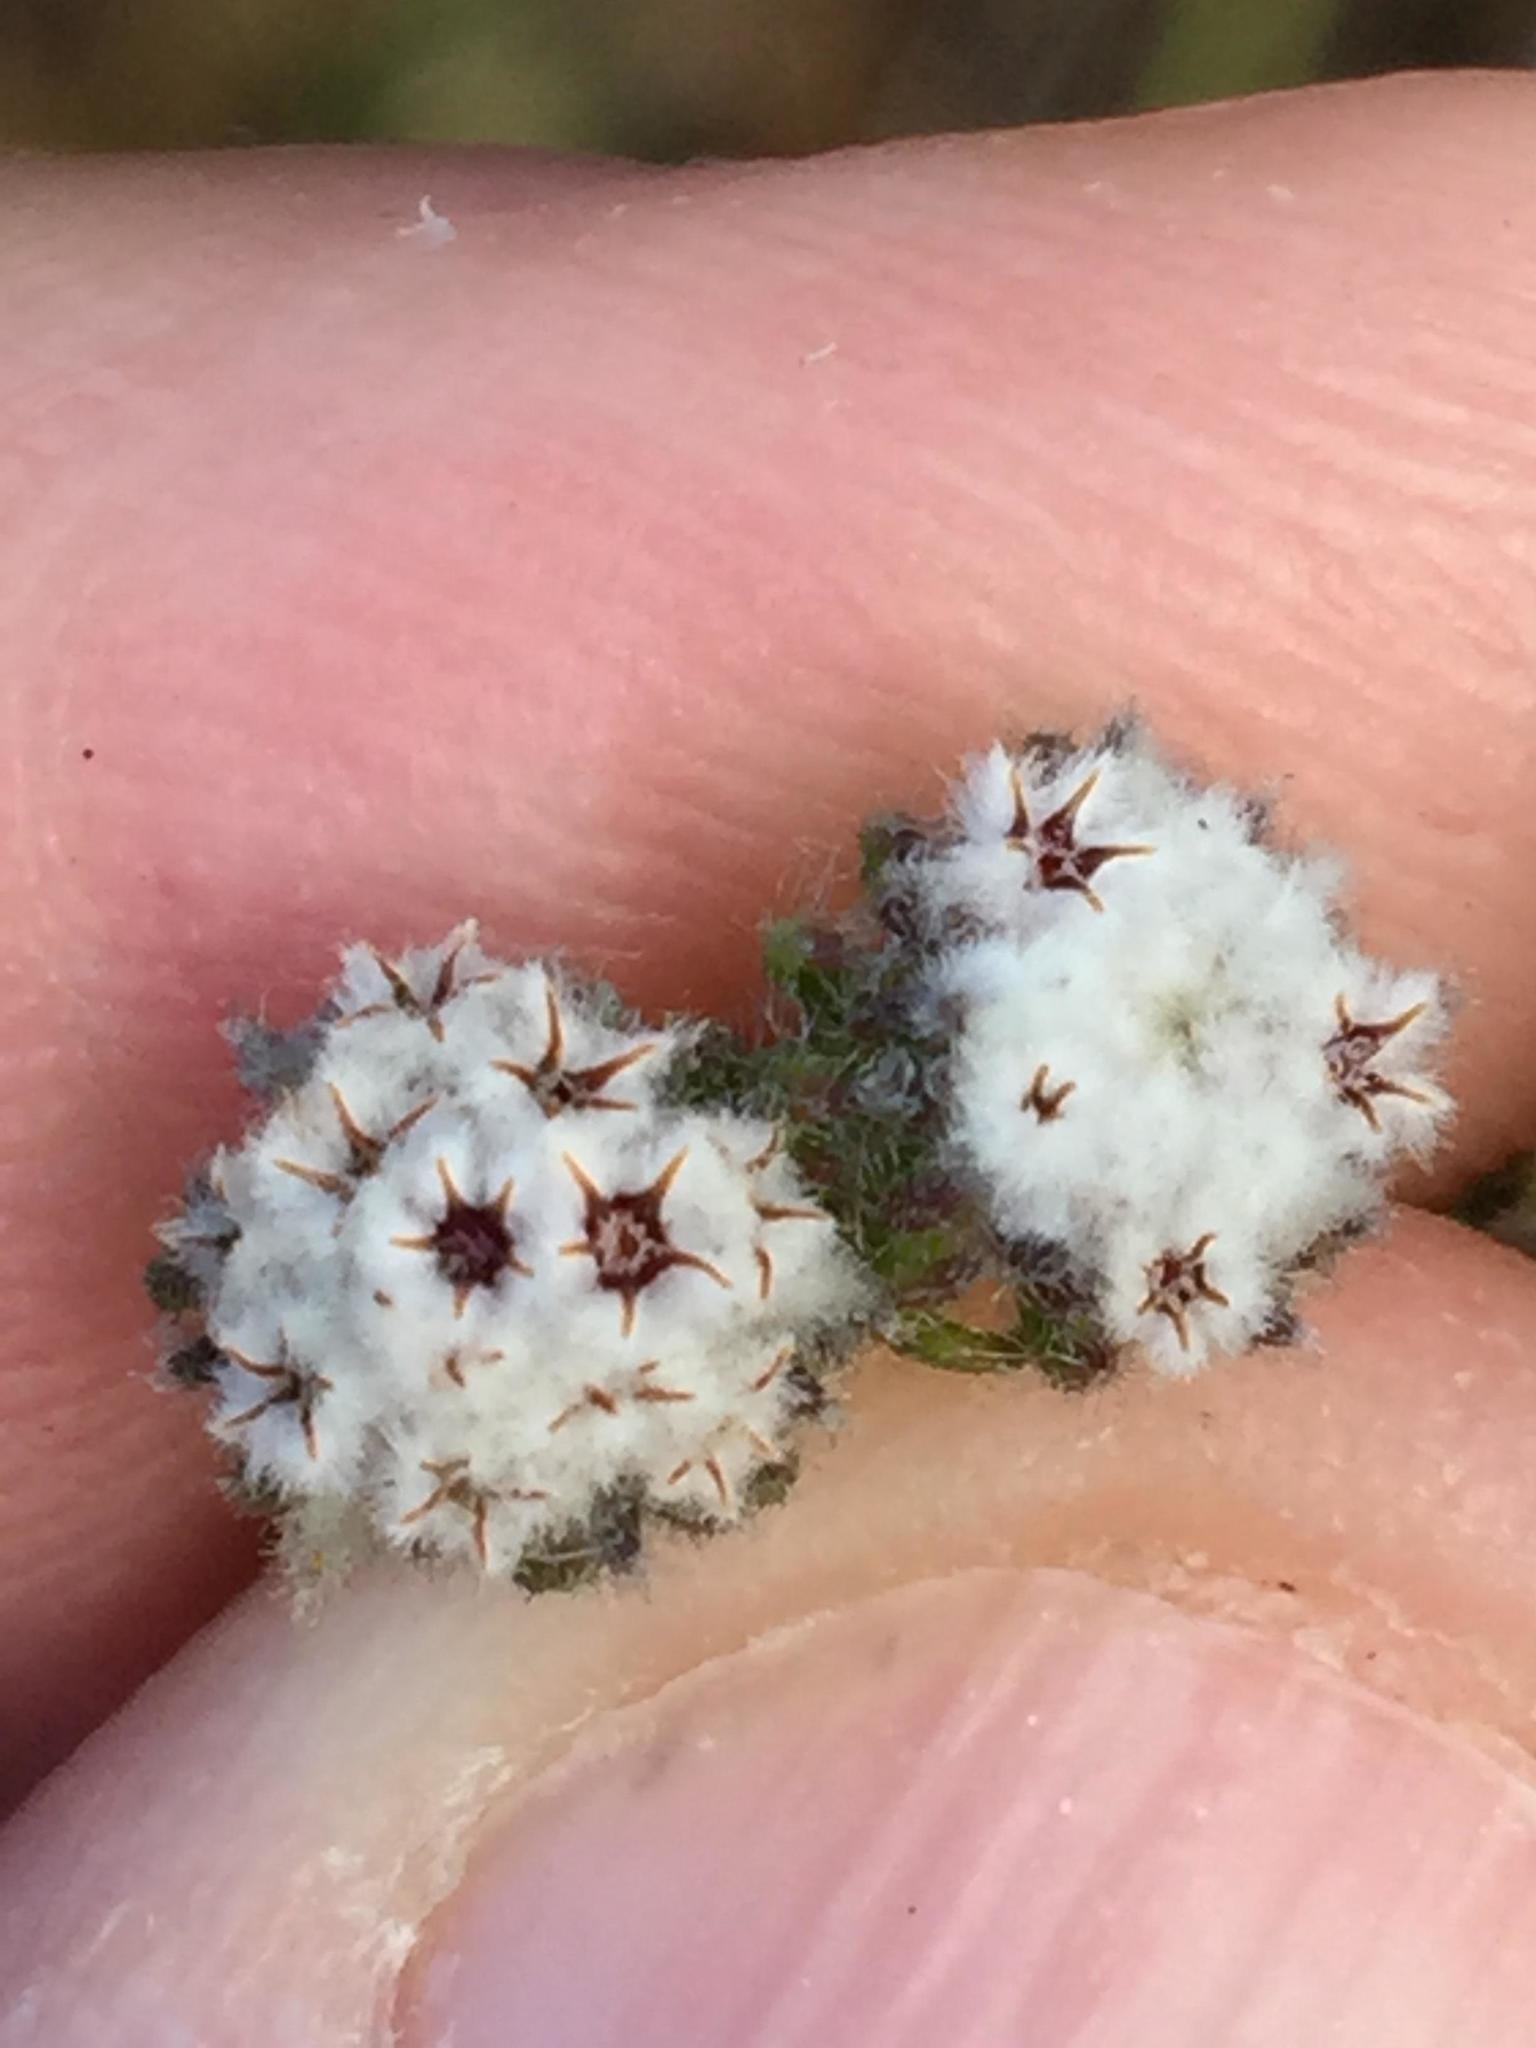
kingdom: Plantae
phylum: Tracheophyta
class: Magnoliopsida
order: Rosales
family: Rhamnaceae
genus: Phylica
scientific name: Phylica keetii
